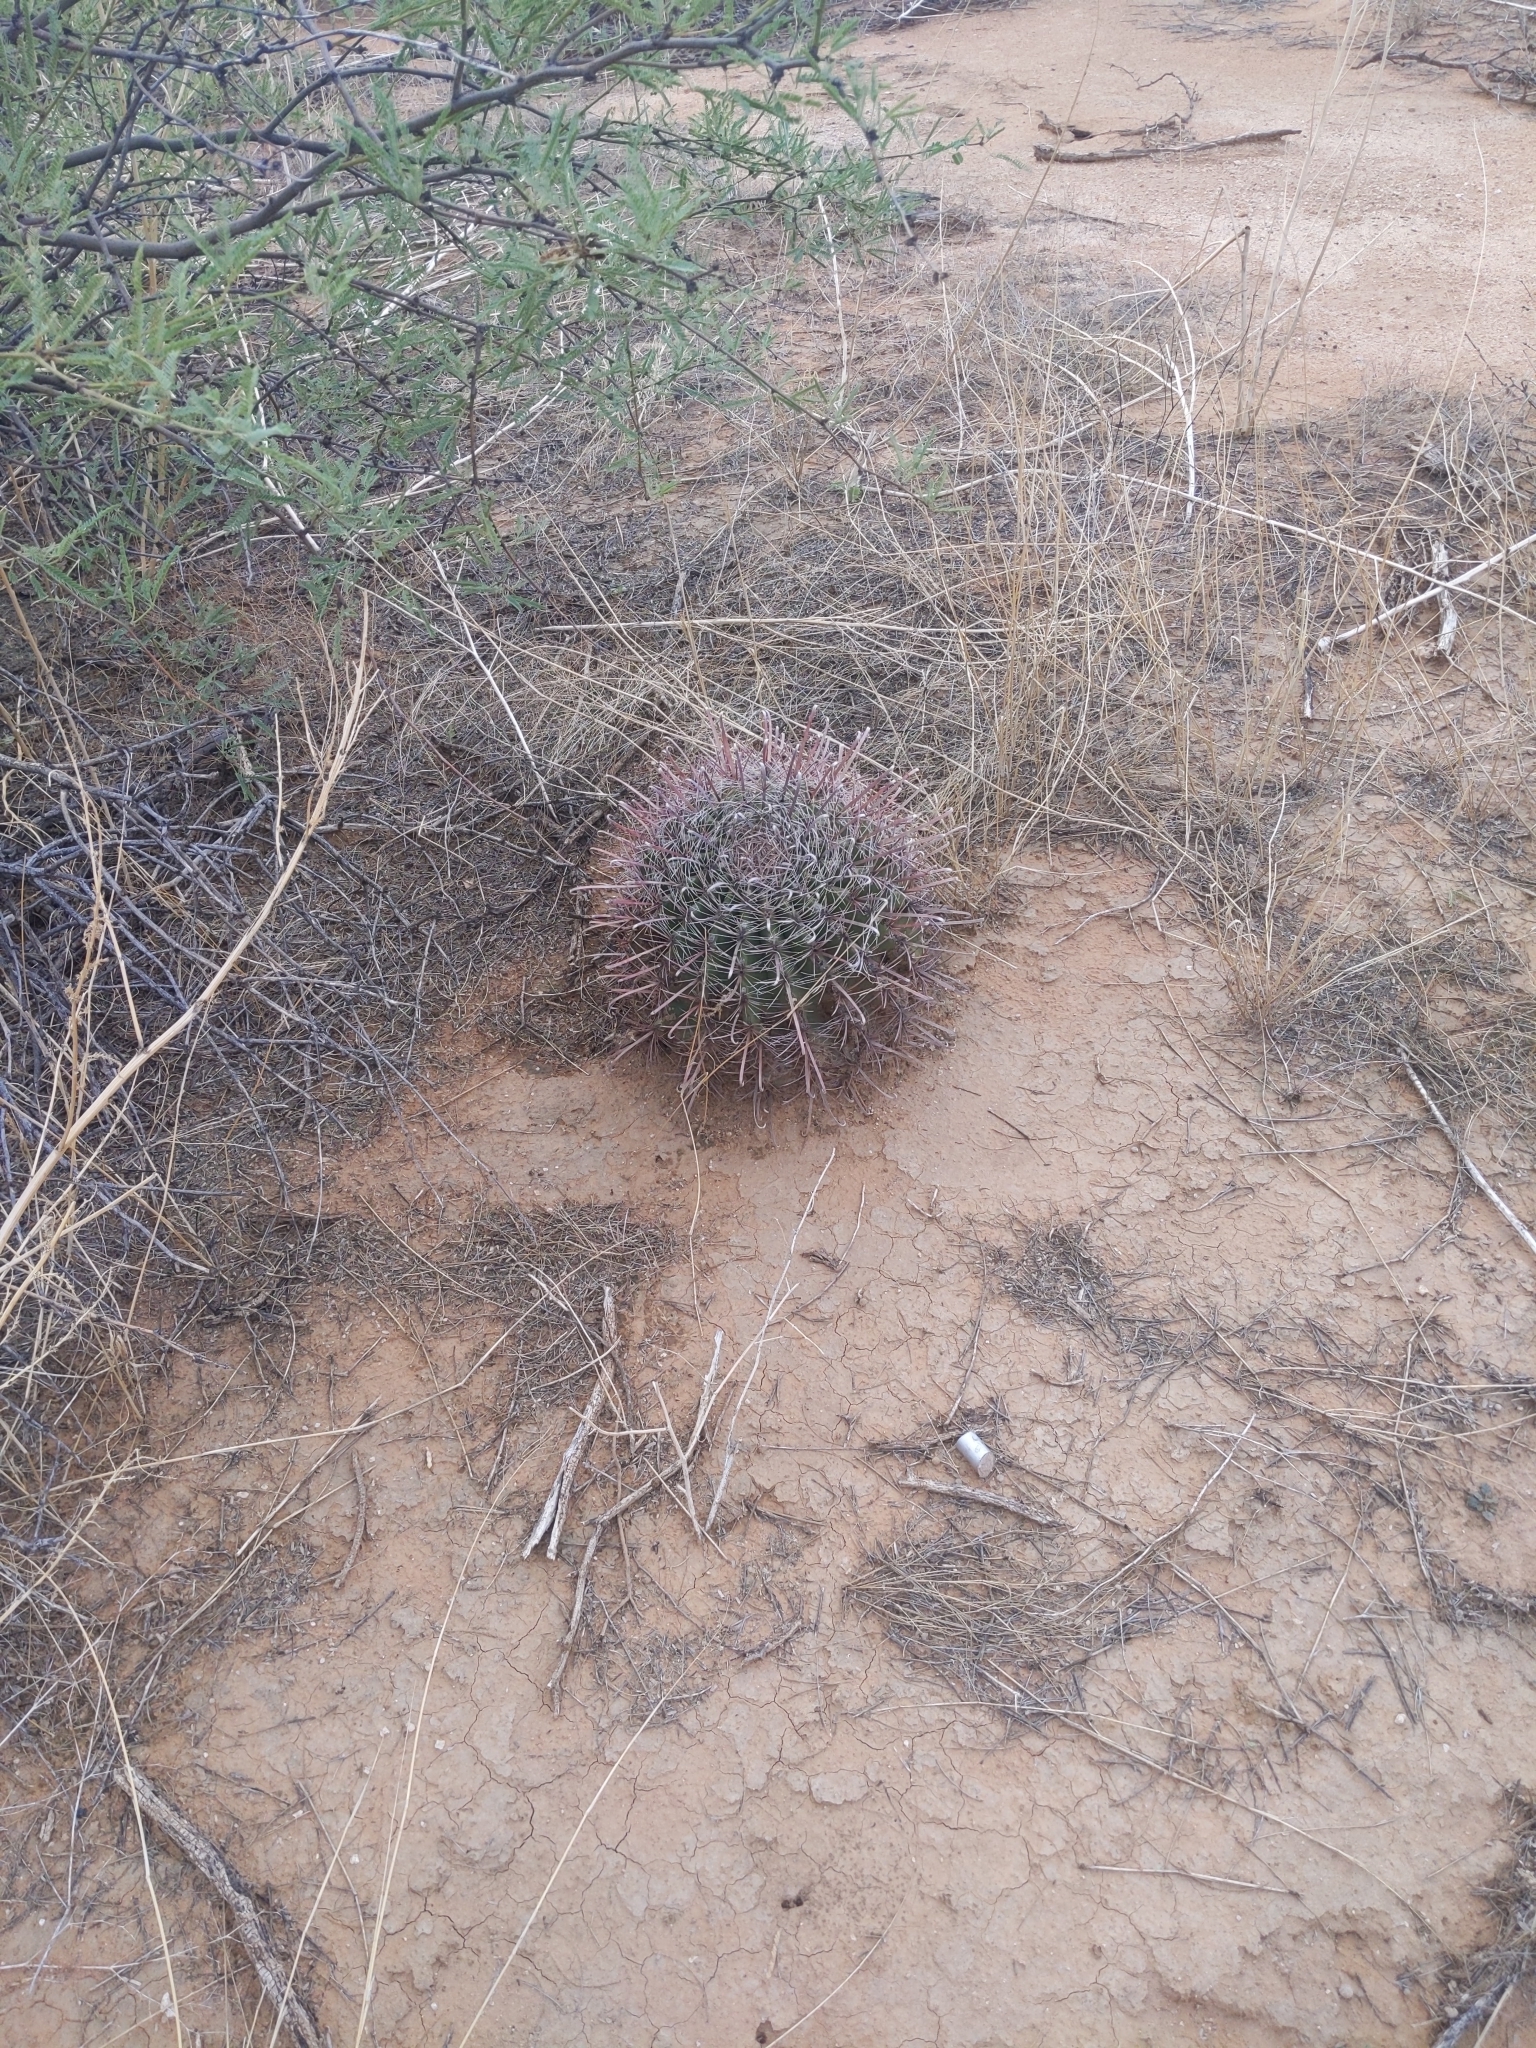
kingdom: Plantae
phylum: Tracheophyta
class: Magnoliopsida
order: Caryophyllales
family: Cactaceae
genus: Ferocactus
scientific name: Ferocactus wislizeni
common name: Candy barrel cactus
